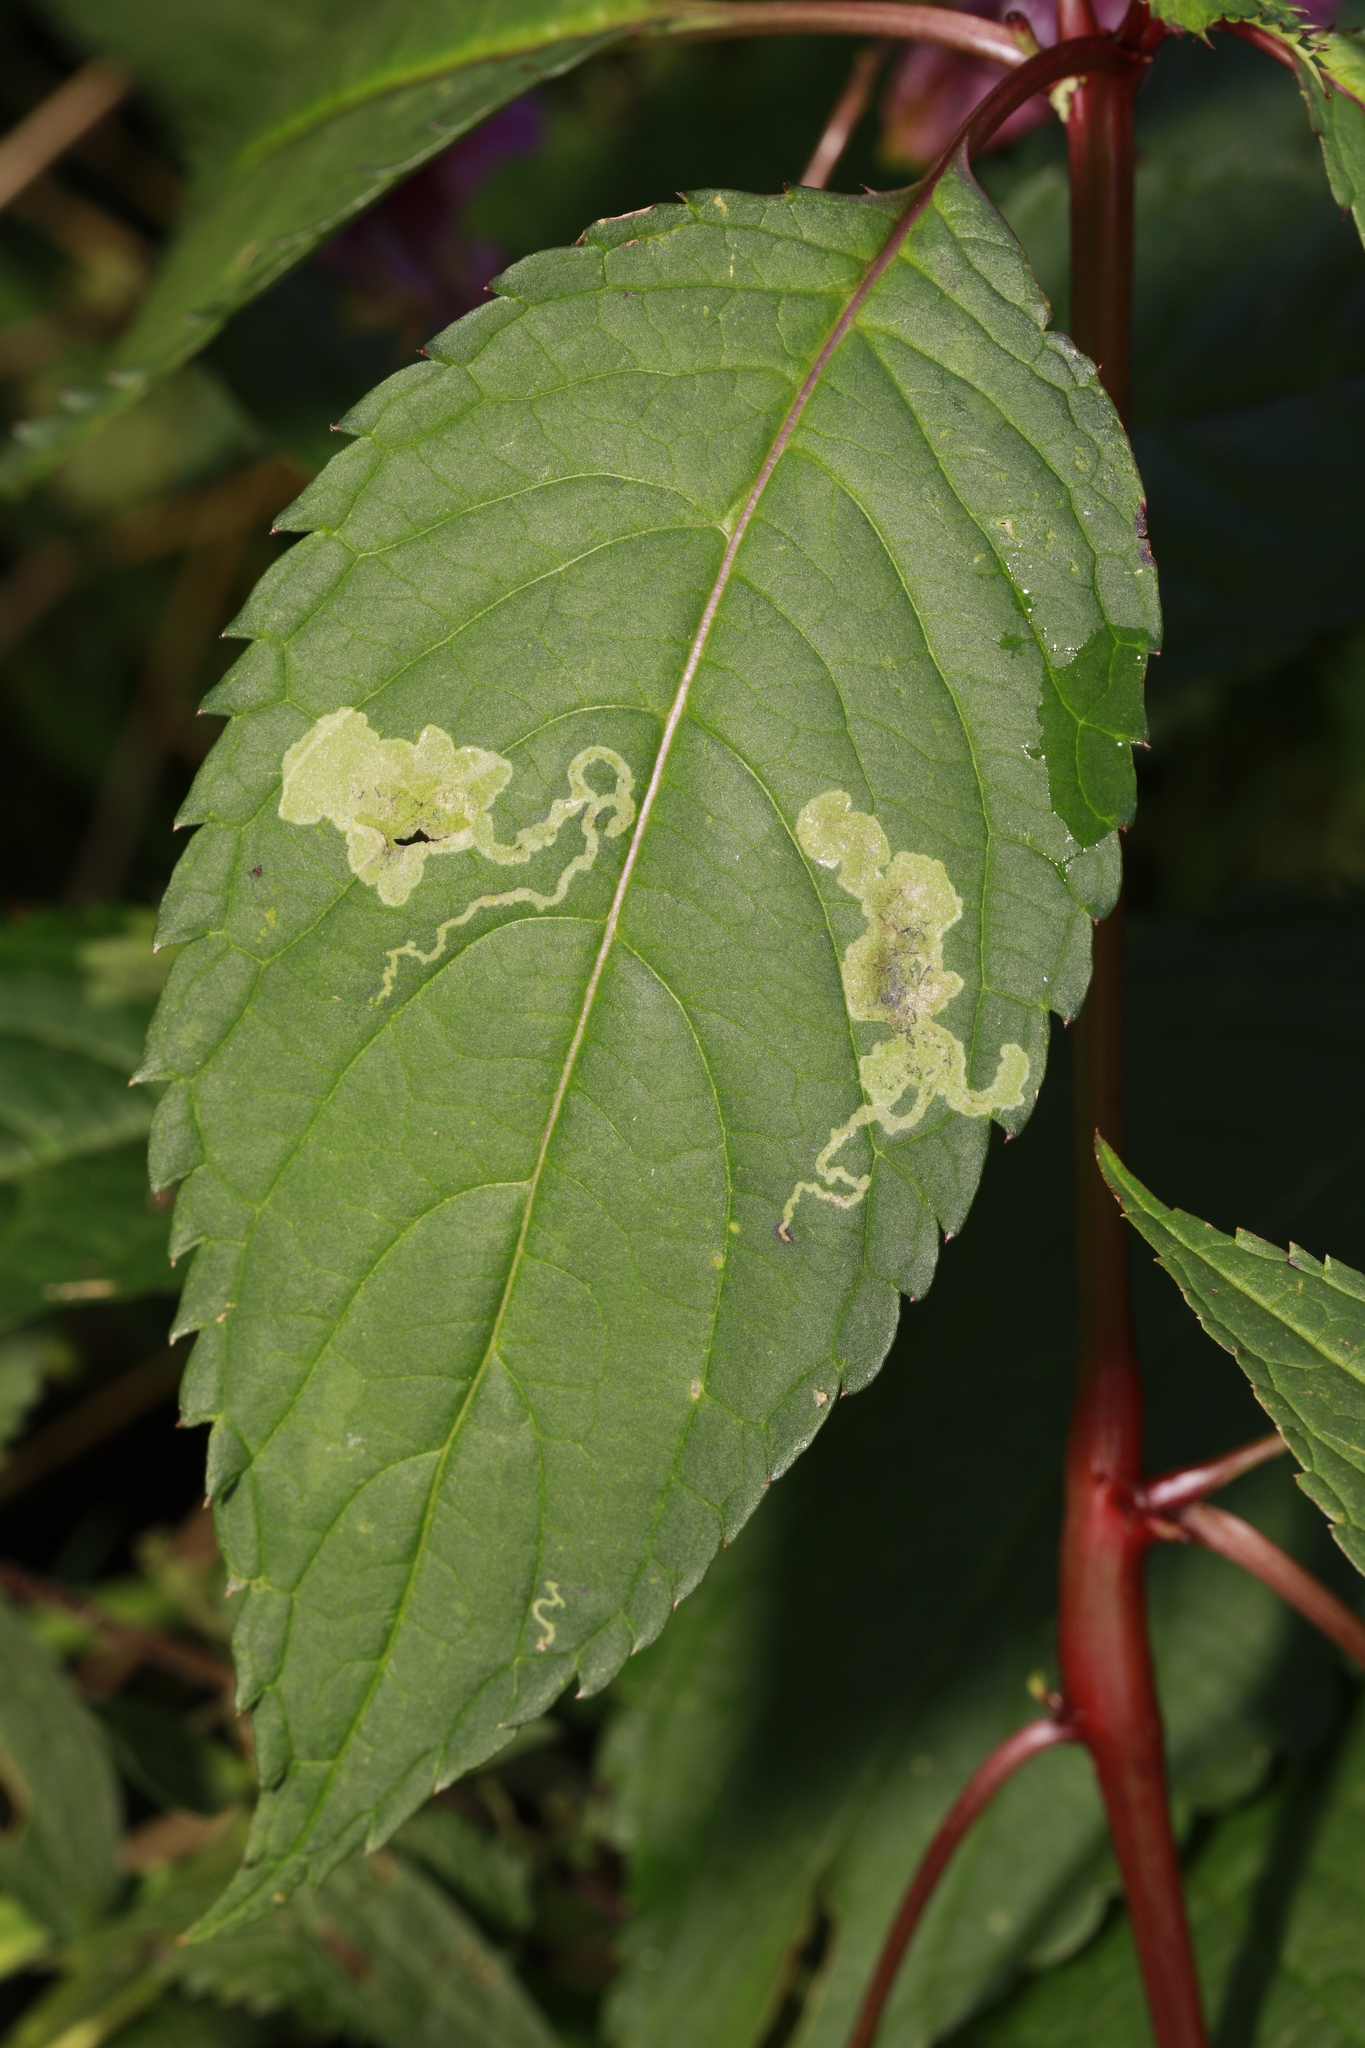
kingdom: Animalia
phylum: Arthropoda
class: Insecta
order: Diptera
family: Agromyzidae
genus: Phytoliriomyza
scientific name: Phytoliriomyza melampyga
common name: Jewelweed leaf-miner fly
